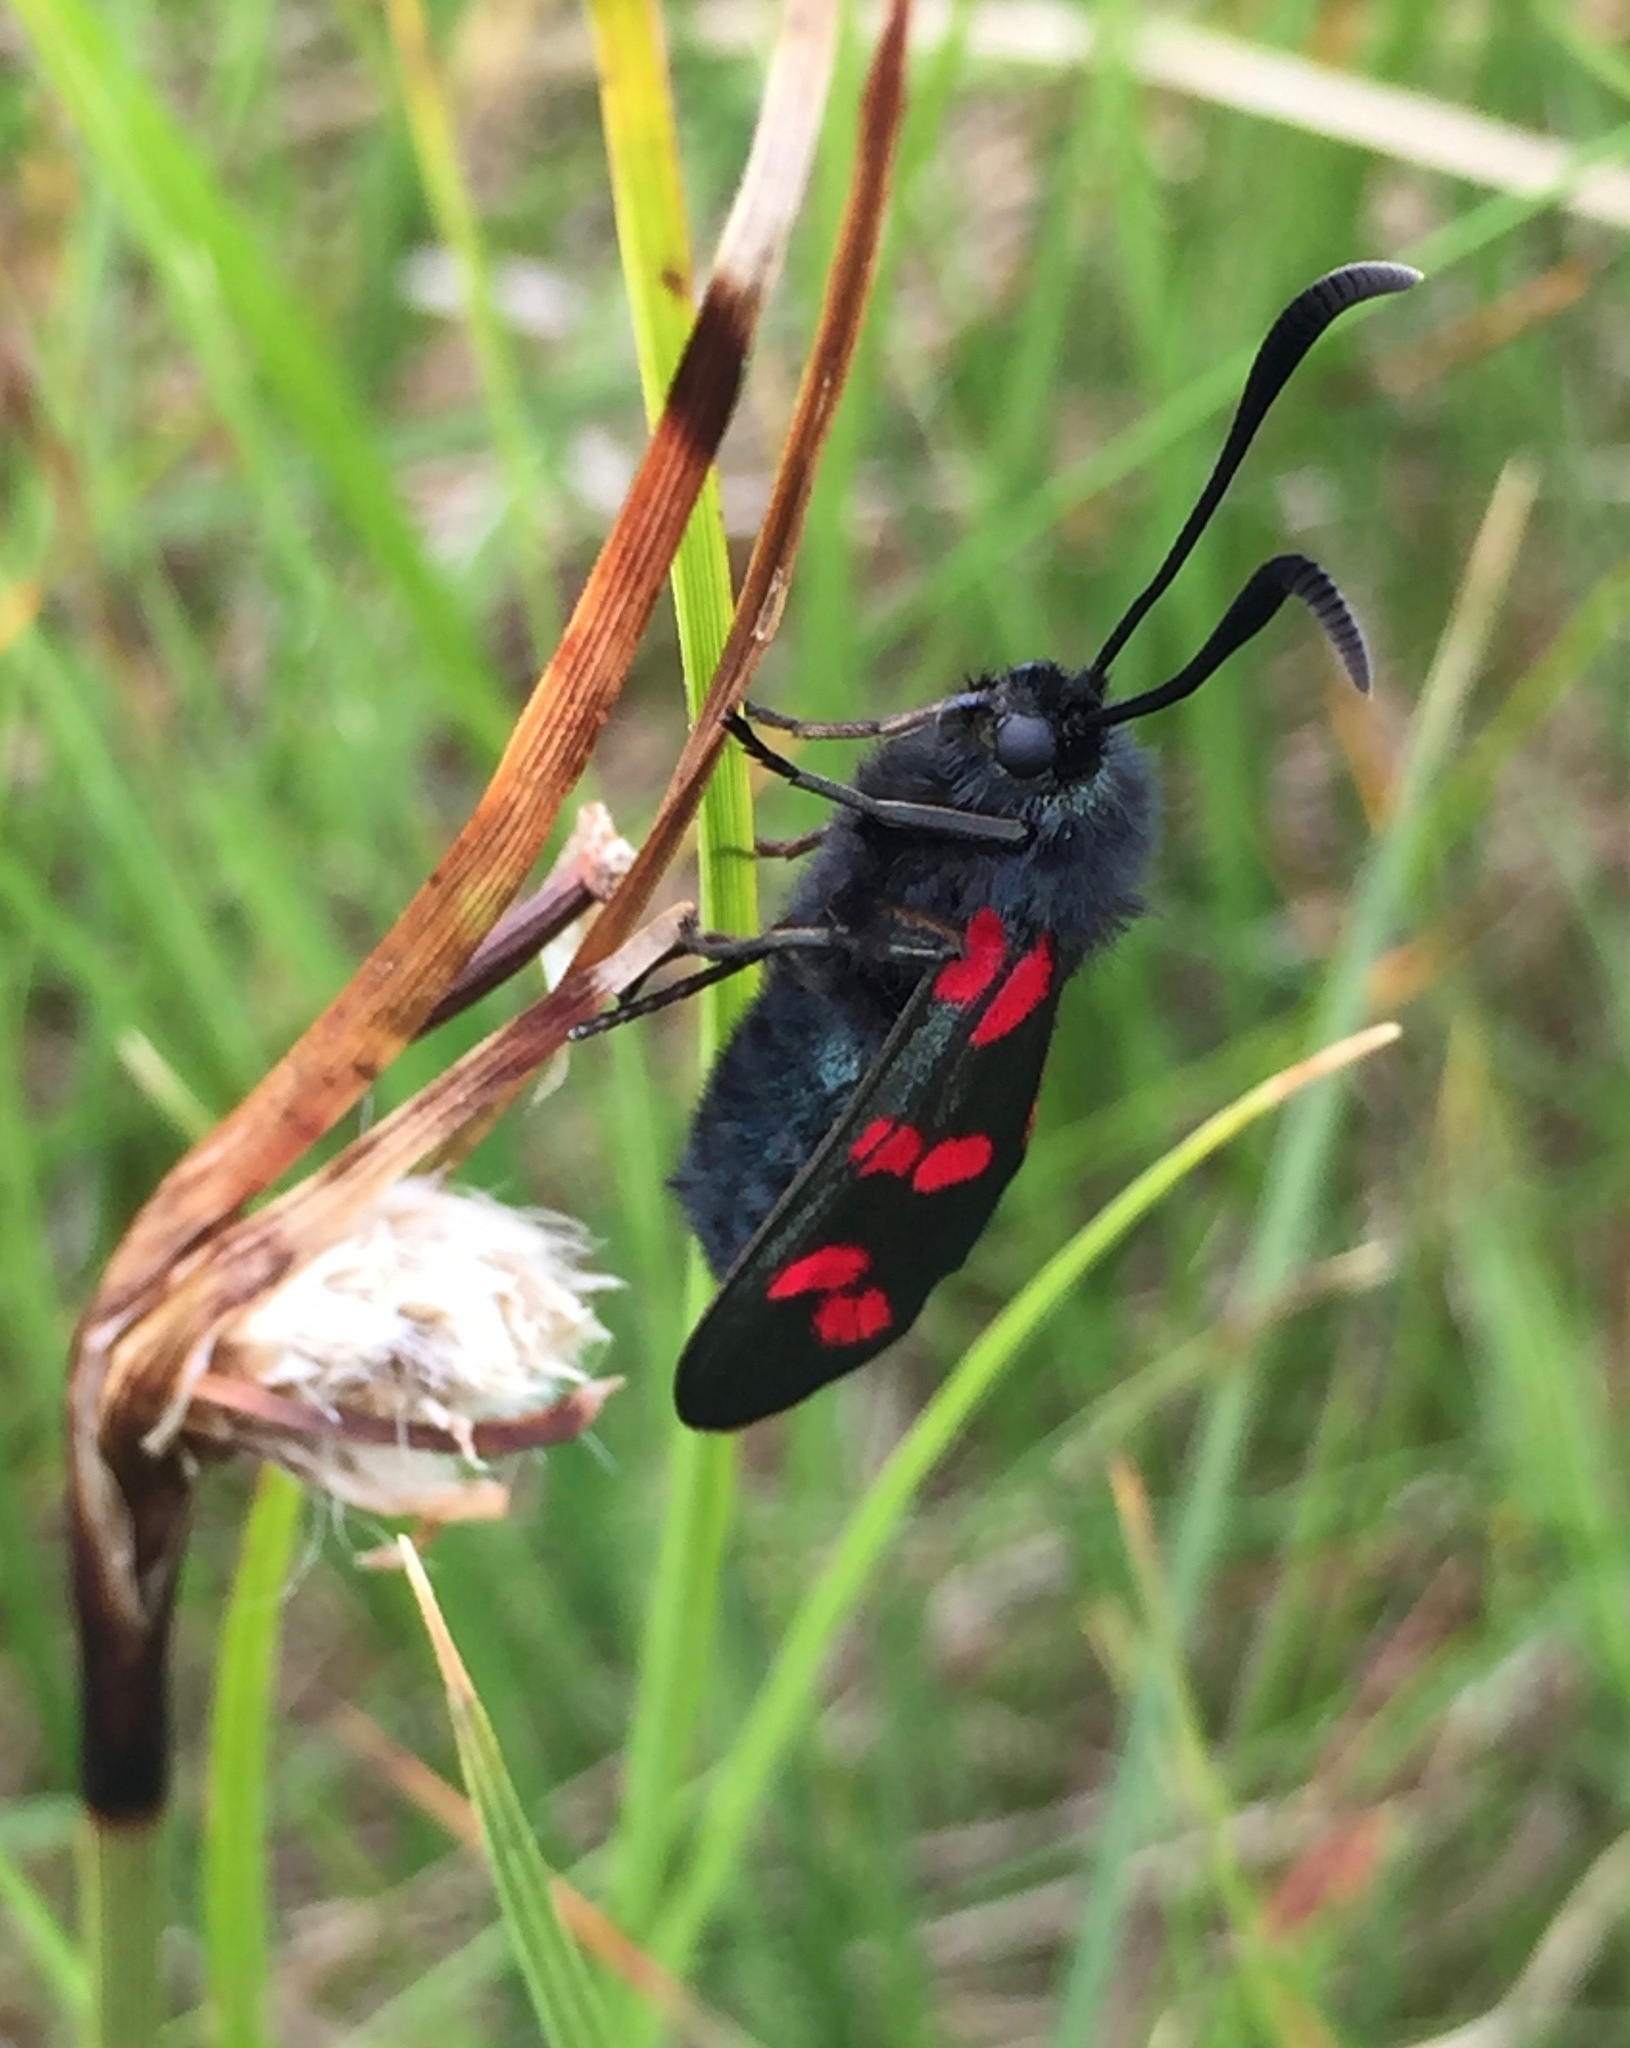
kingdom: Animalia
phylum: Arthropoda
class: Insecta
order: Lepidoptera
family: Zygaenidae
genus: Zygaena
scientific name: Zygaena filipendulae
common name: Six-spot burnet
